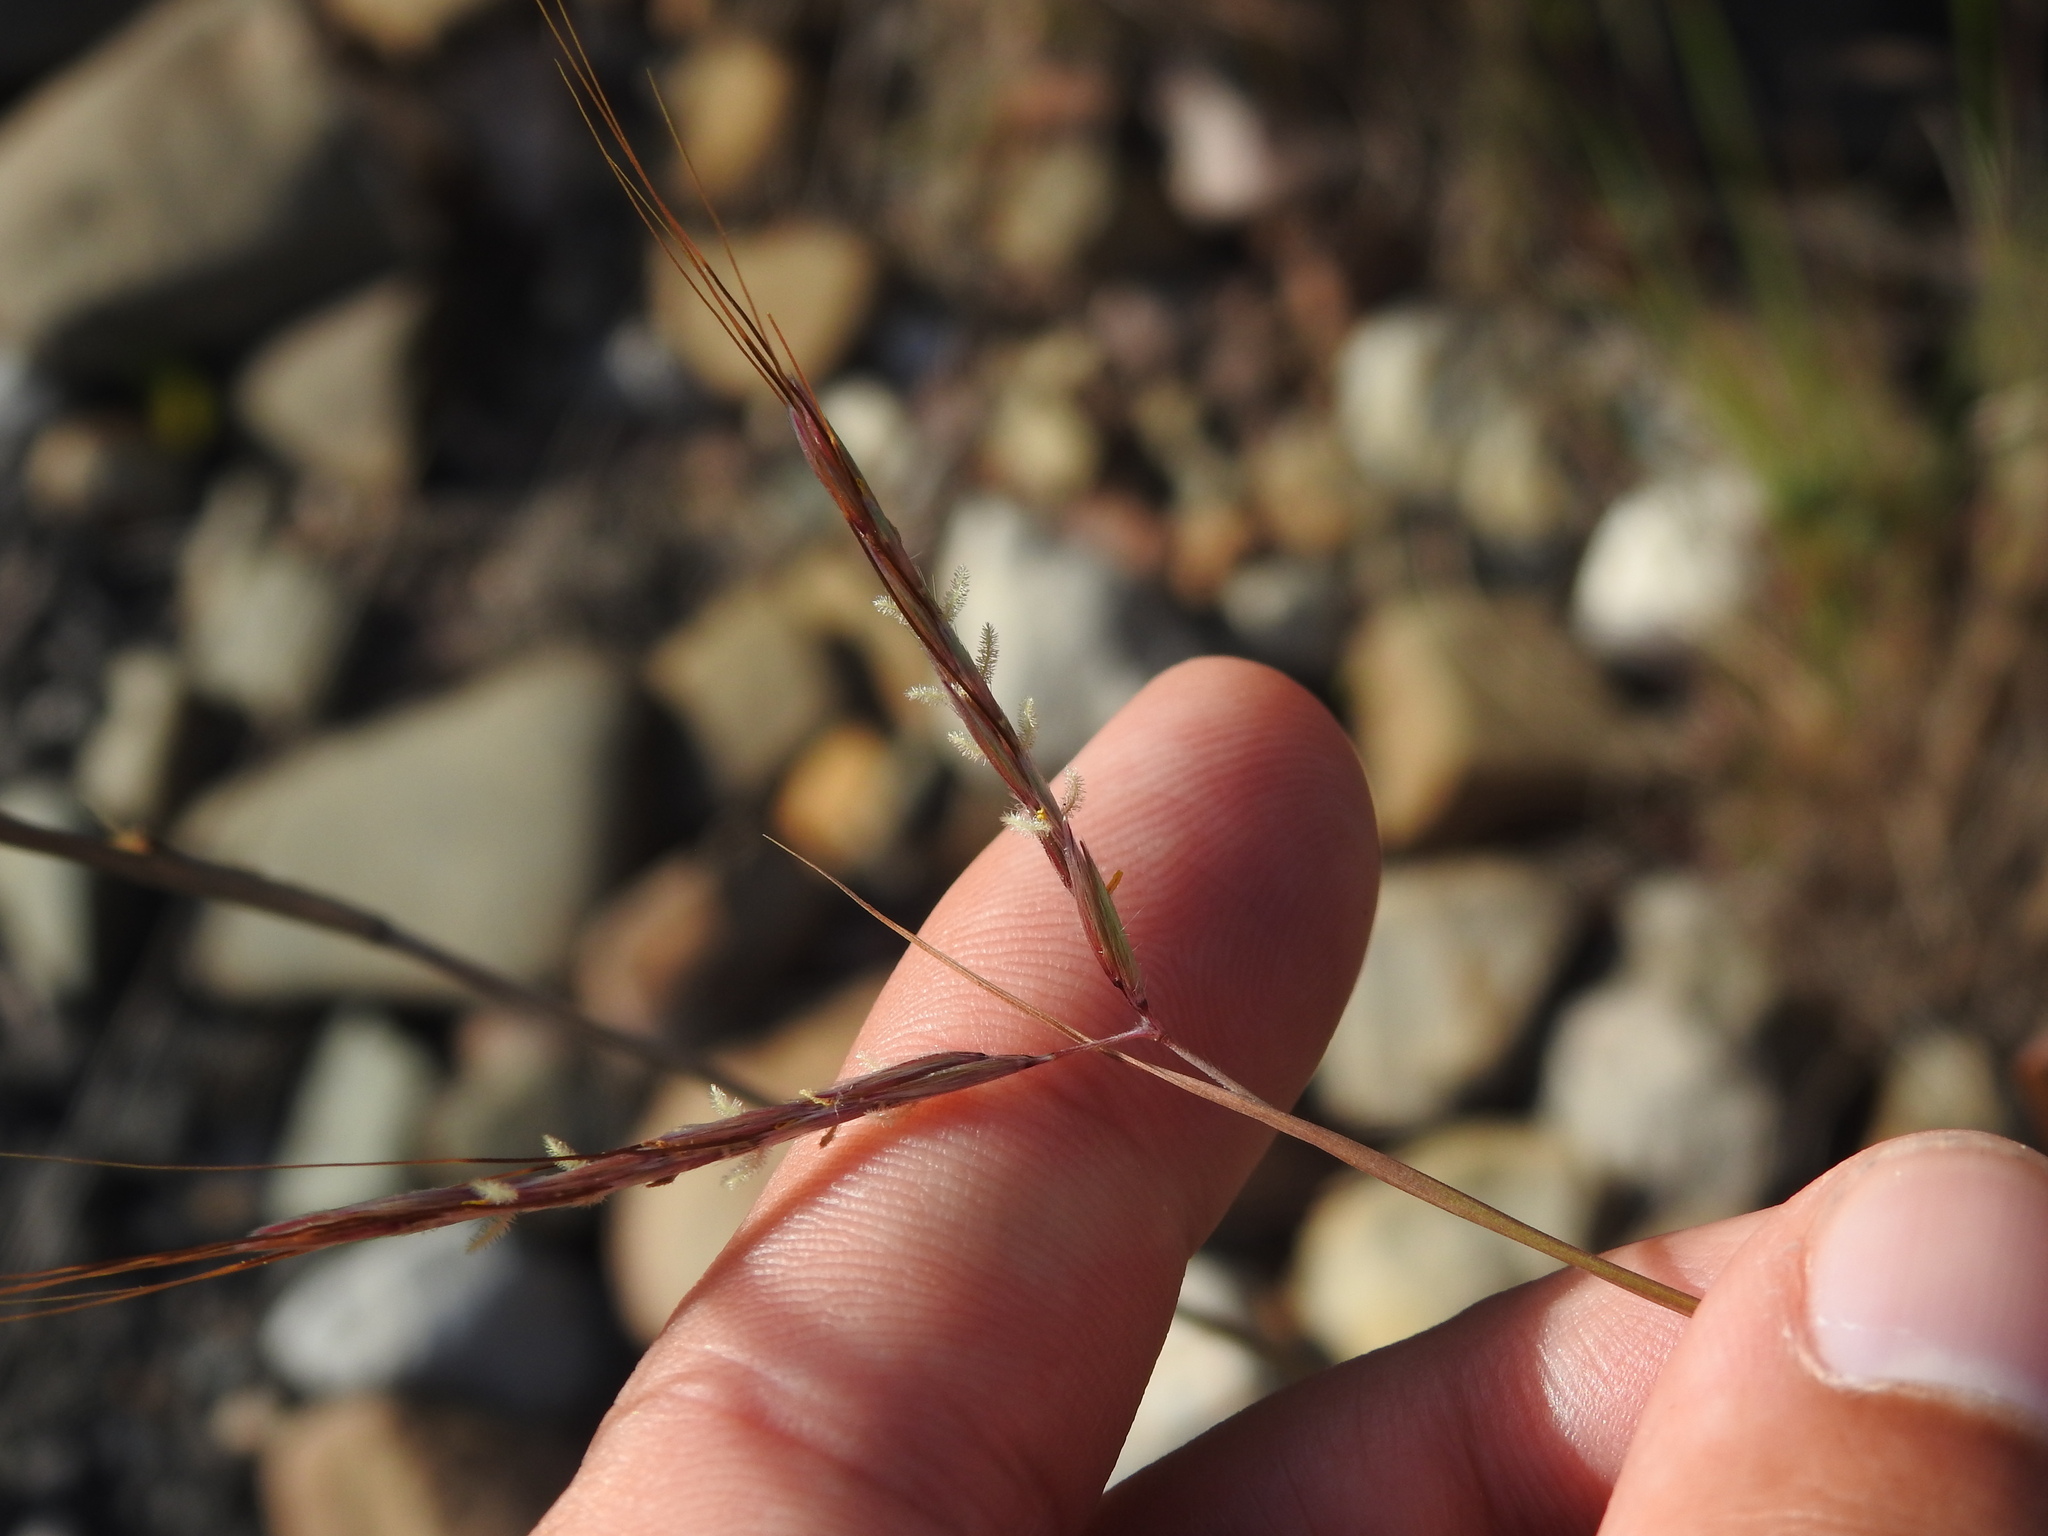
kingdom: Plantae
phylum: Tracheophyta
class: Liliopsida
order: Poales
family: Poaceae
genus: Hyparrhenia
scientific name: Hyparrhenia hirta
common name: Thatching grass
